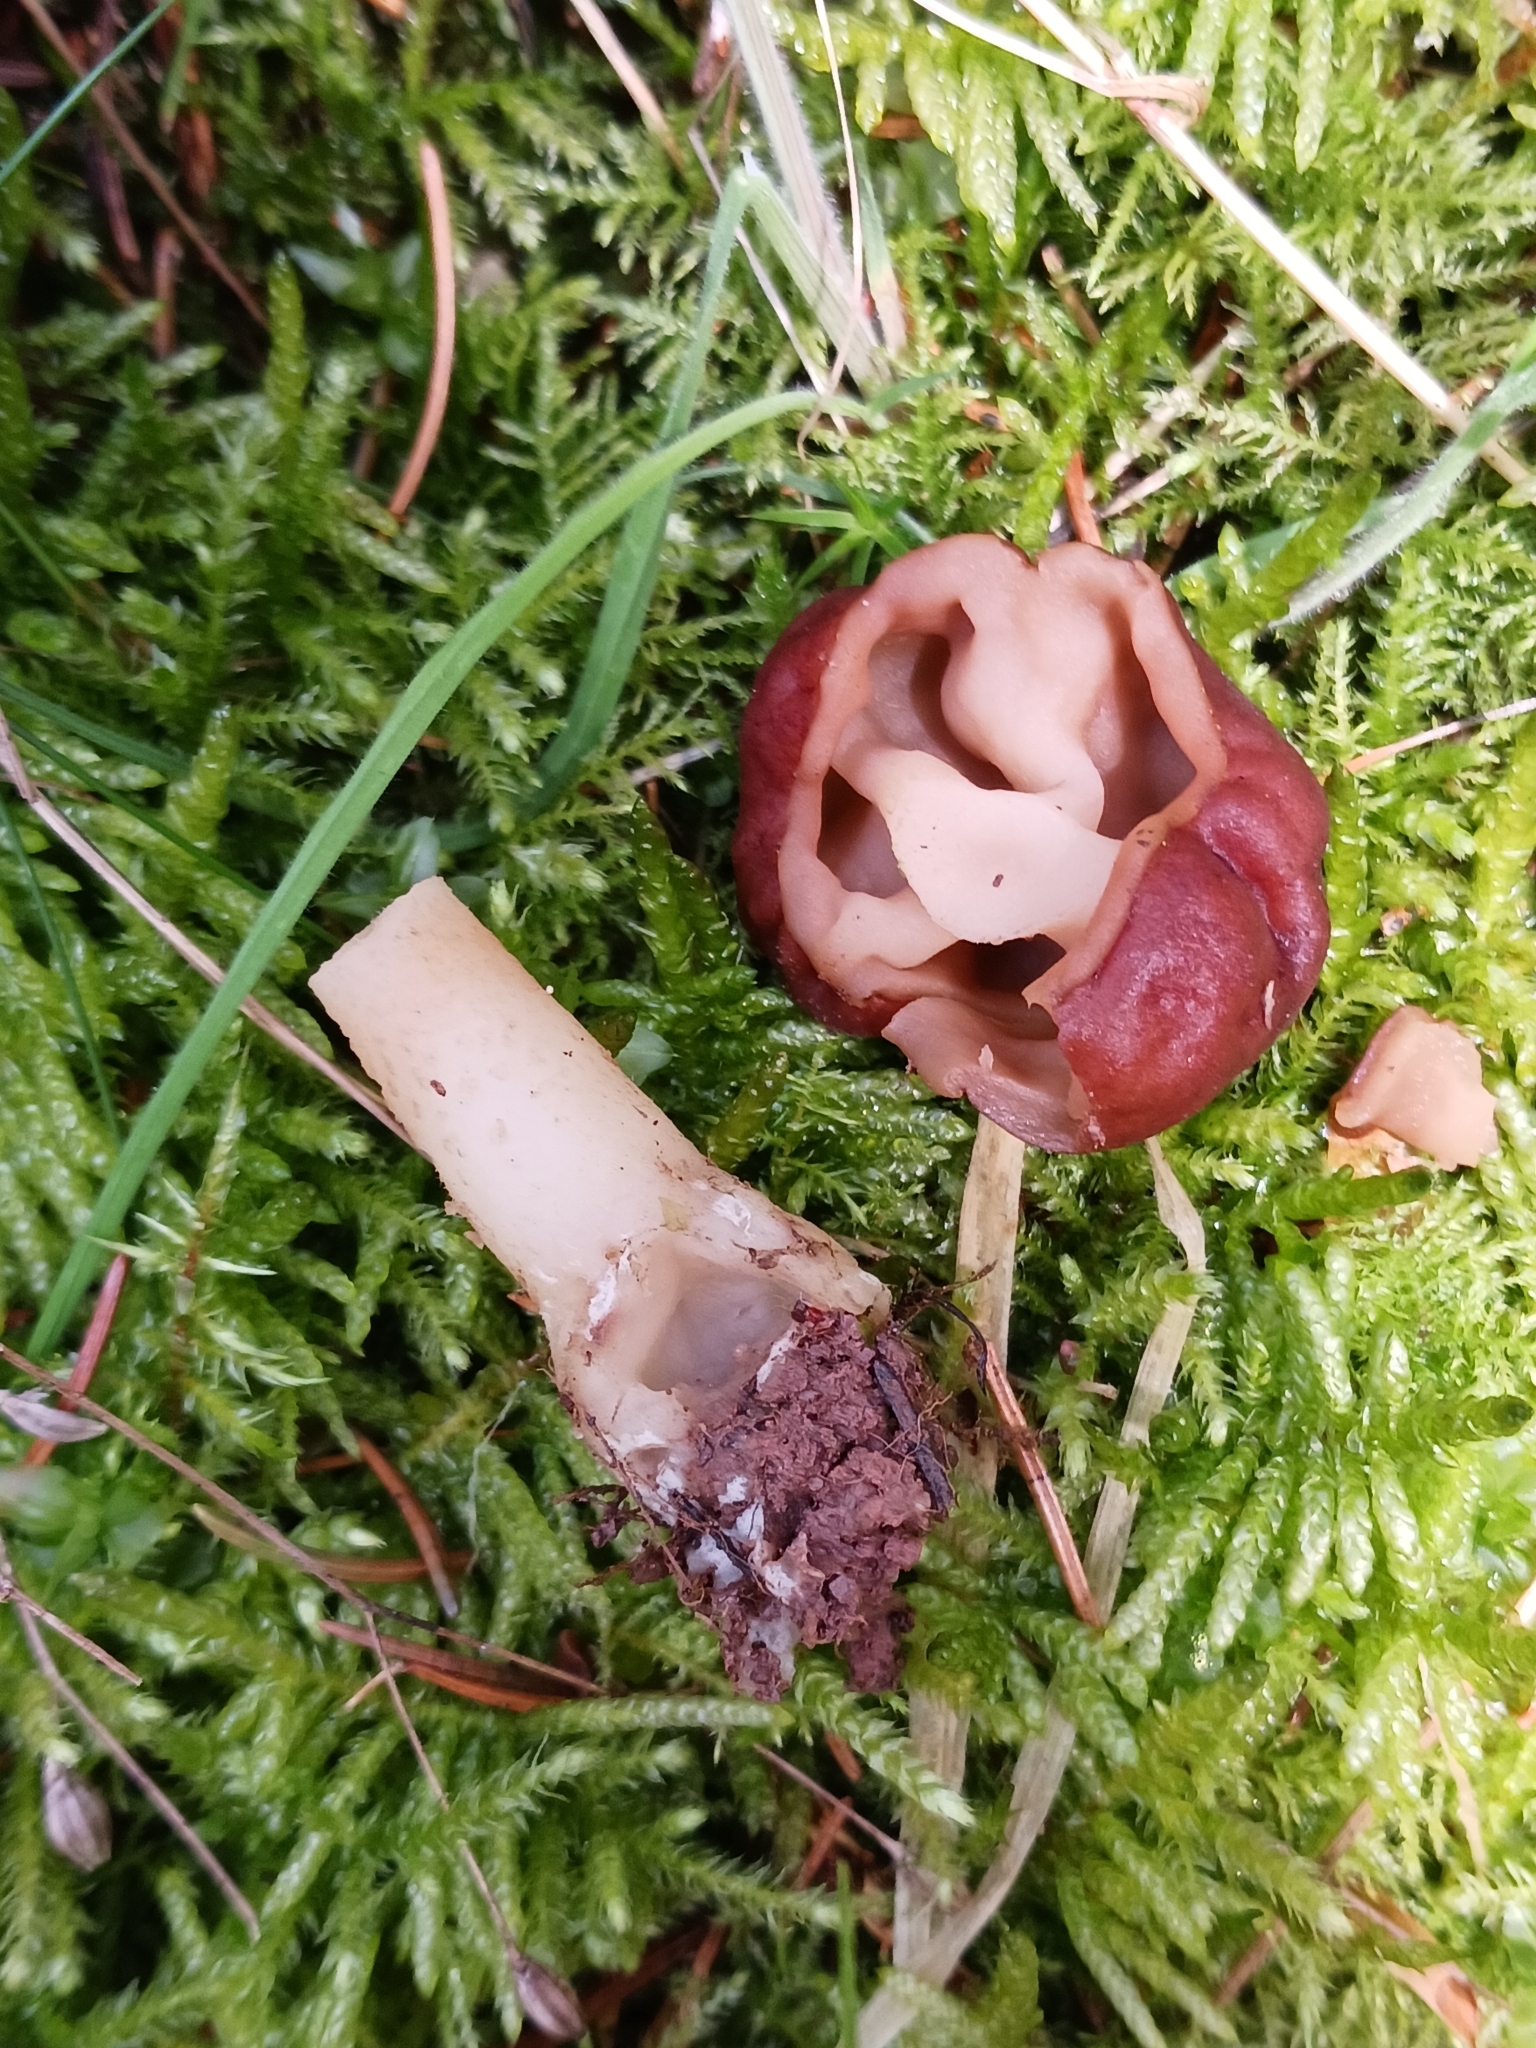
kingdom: Fungi
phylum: Ascomycota
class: Pezizomycetes
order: Pezizales
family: Discinaceae
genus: Gyromitra
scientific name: Gyromitra esculenta
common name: False morel
